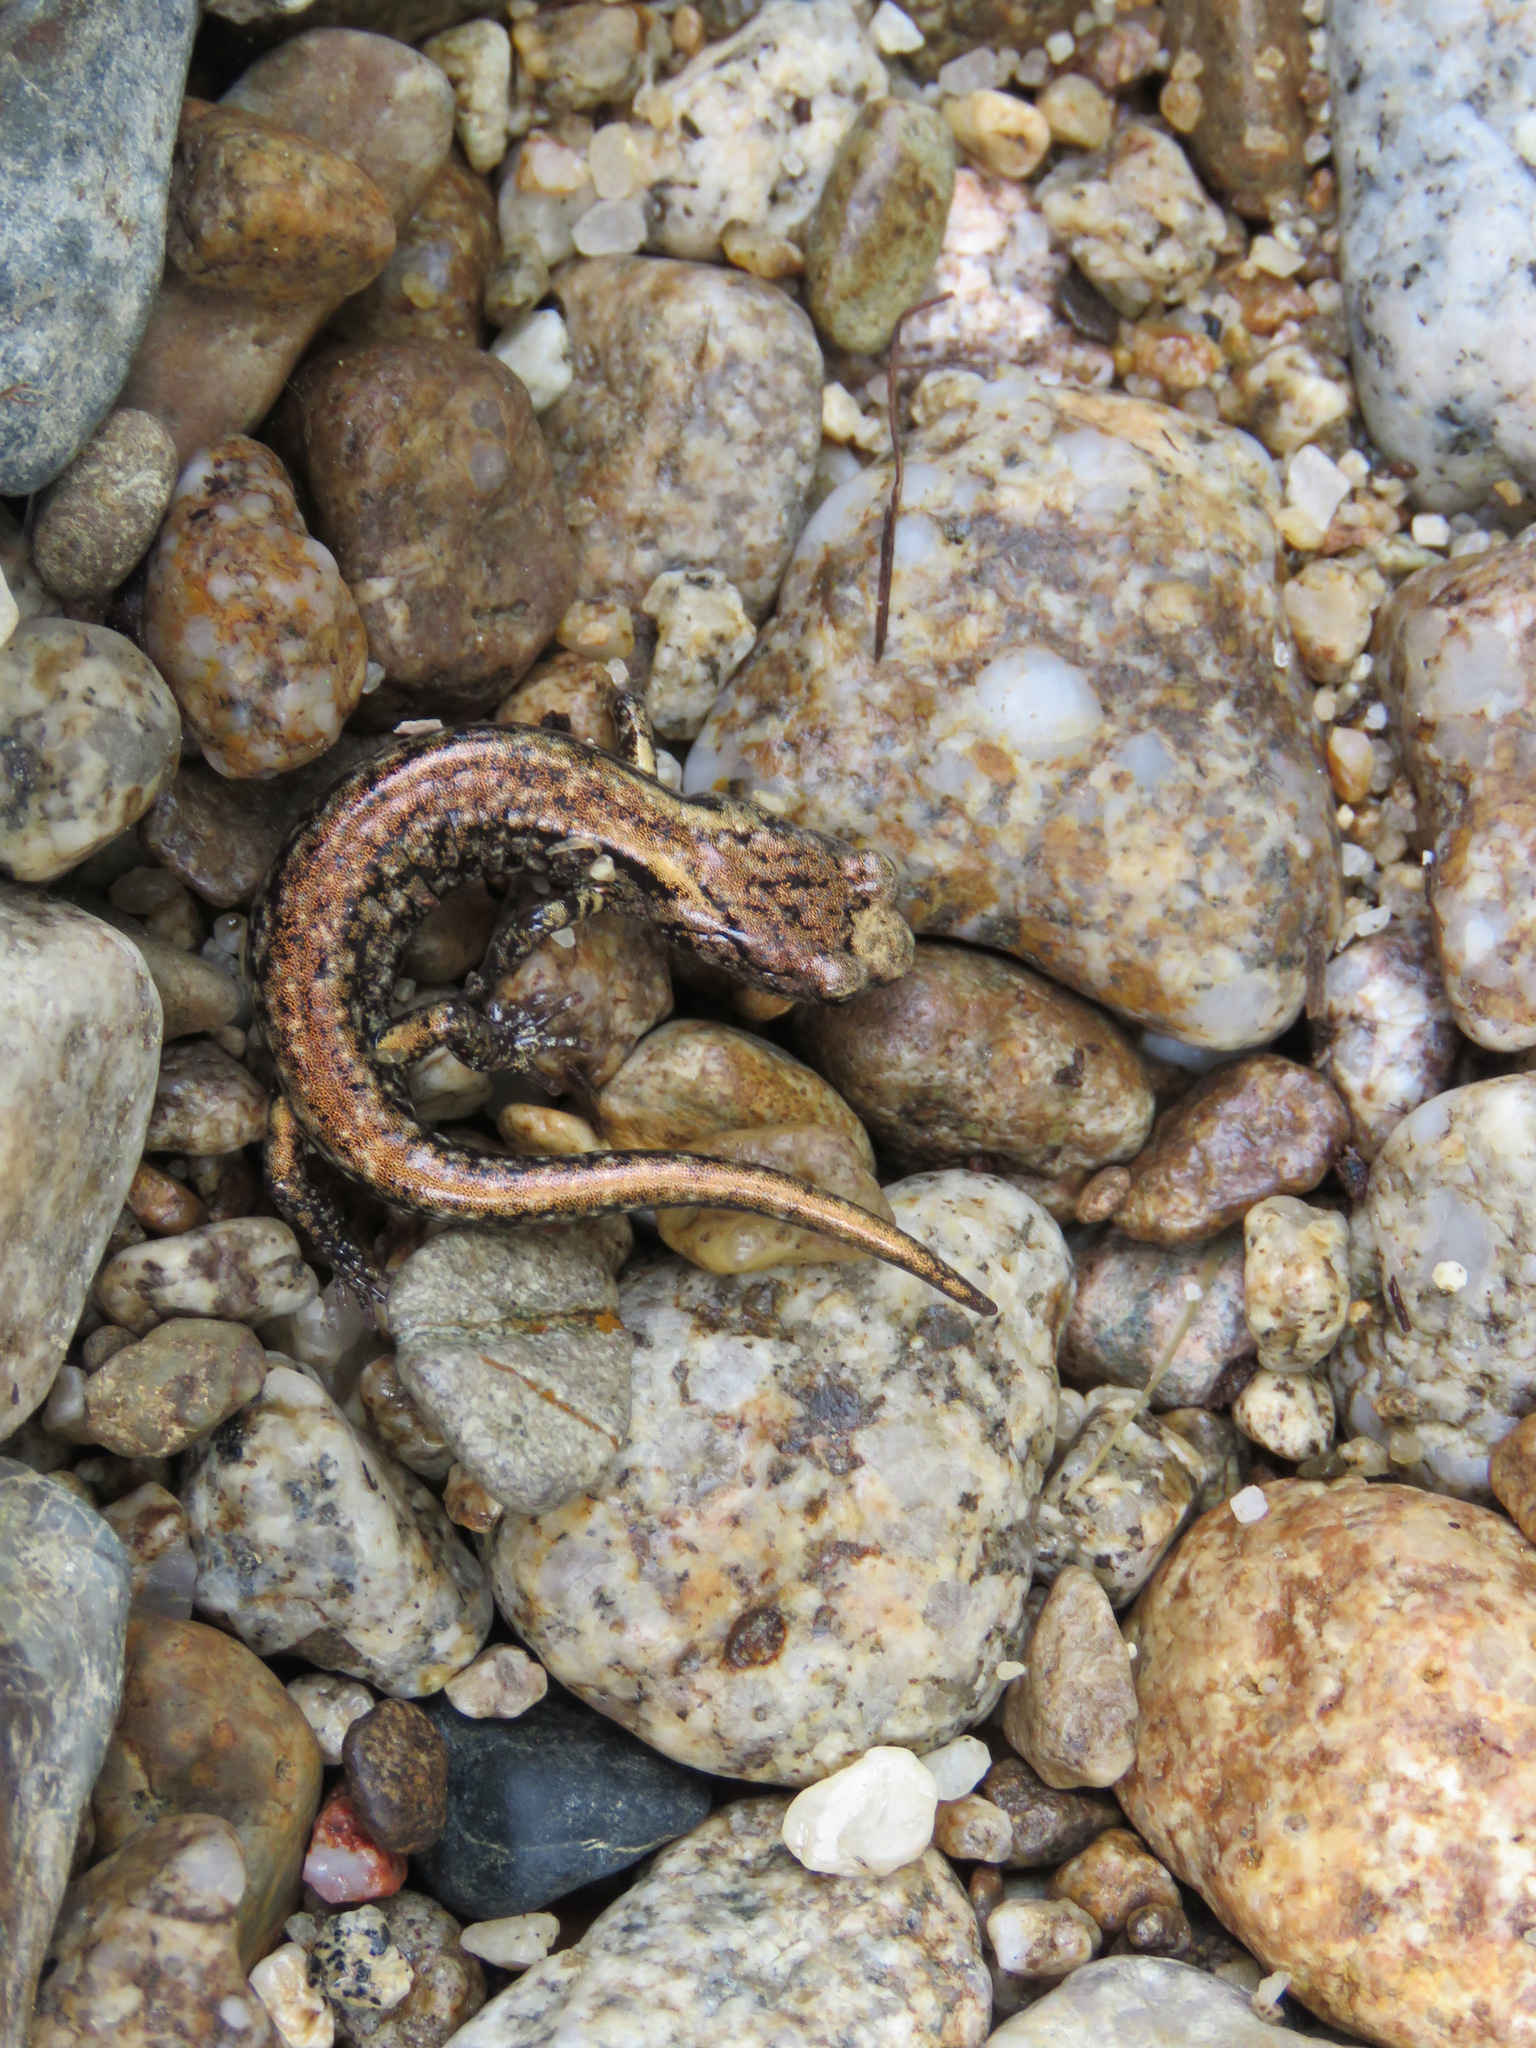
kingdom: Animalia
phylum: Chordata
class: Amphibia
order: Caudata
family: Plethodontidae
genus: Aneides
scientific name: Aneides vagrans
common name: Wandering salamander
